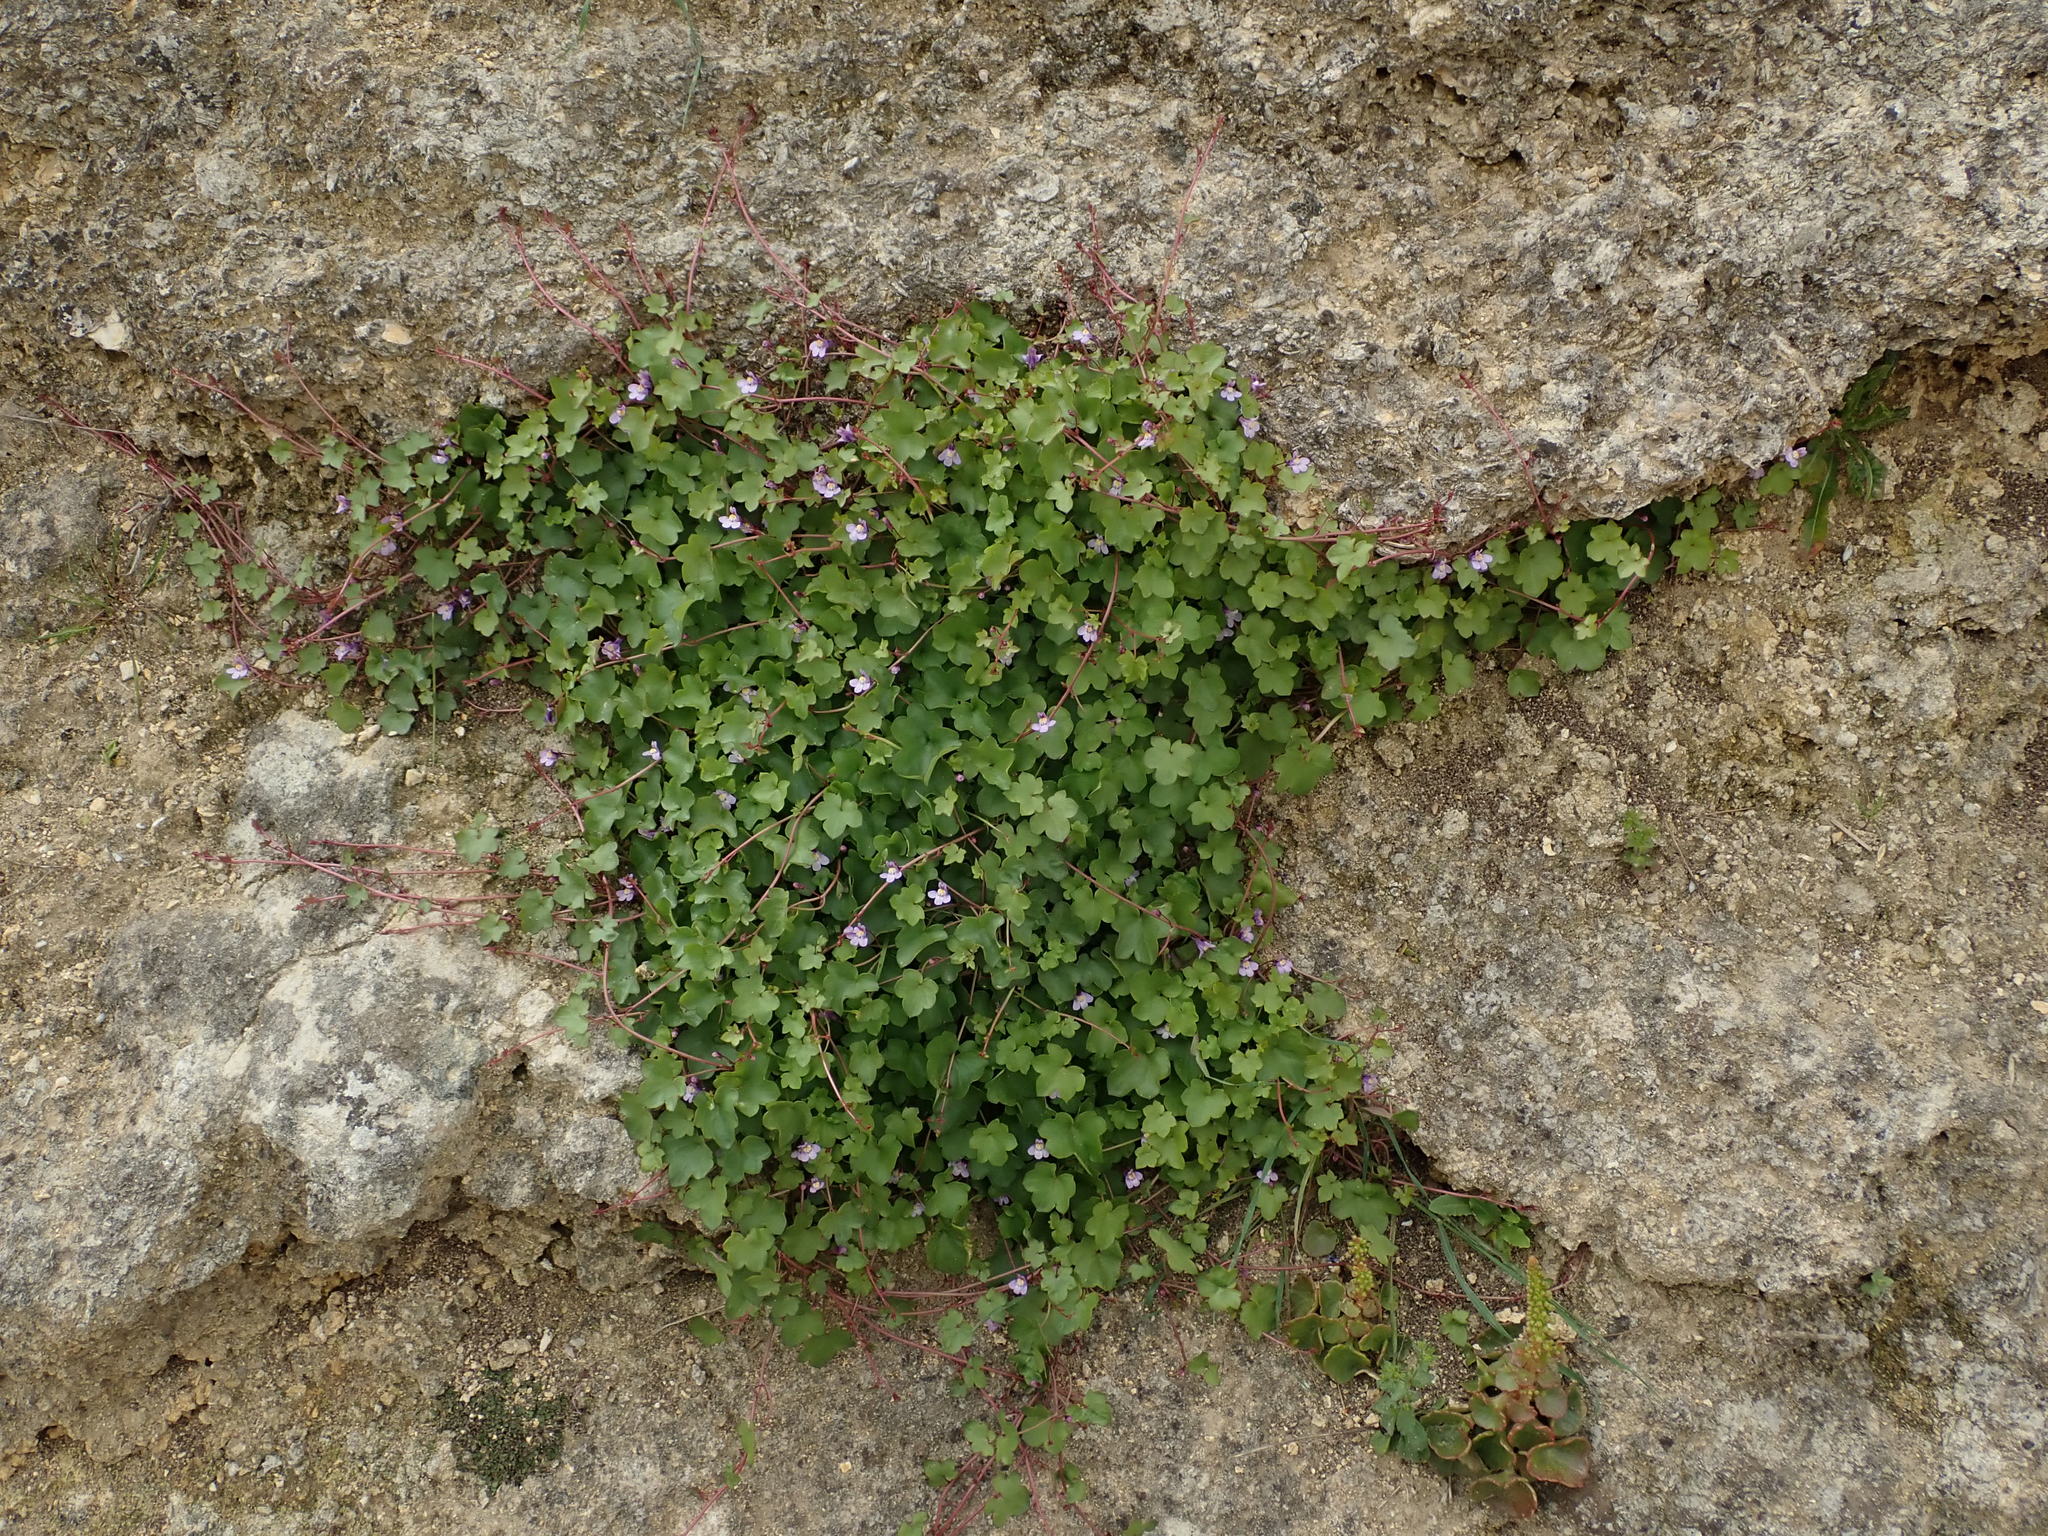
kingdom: Plantae
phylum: Tracheophyta
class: Magnoliopsida
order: Lamiales
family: Plantaginaceae
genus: Cymbalaria
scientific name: Cymbalaria muralis
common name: Ivy-leaved toadflax
